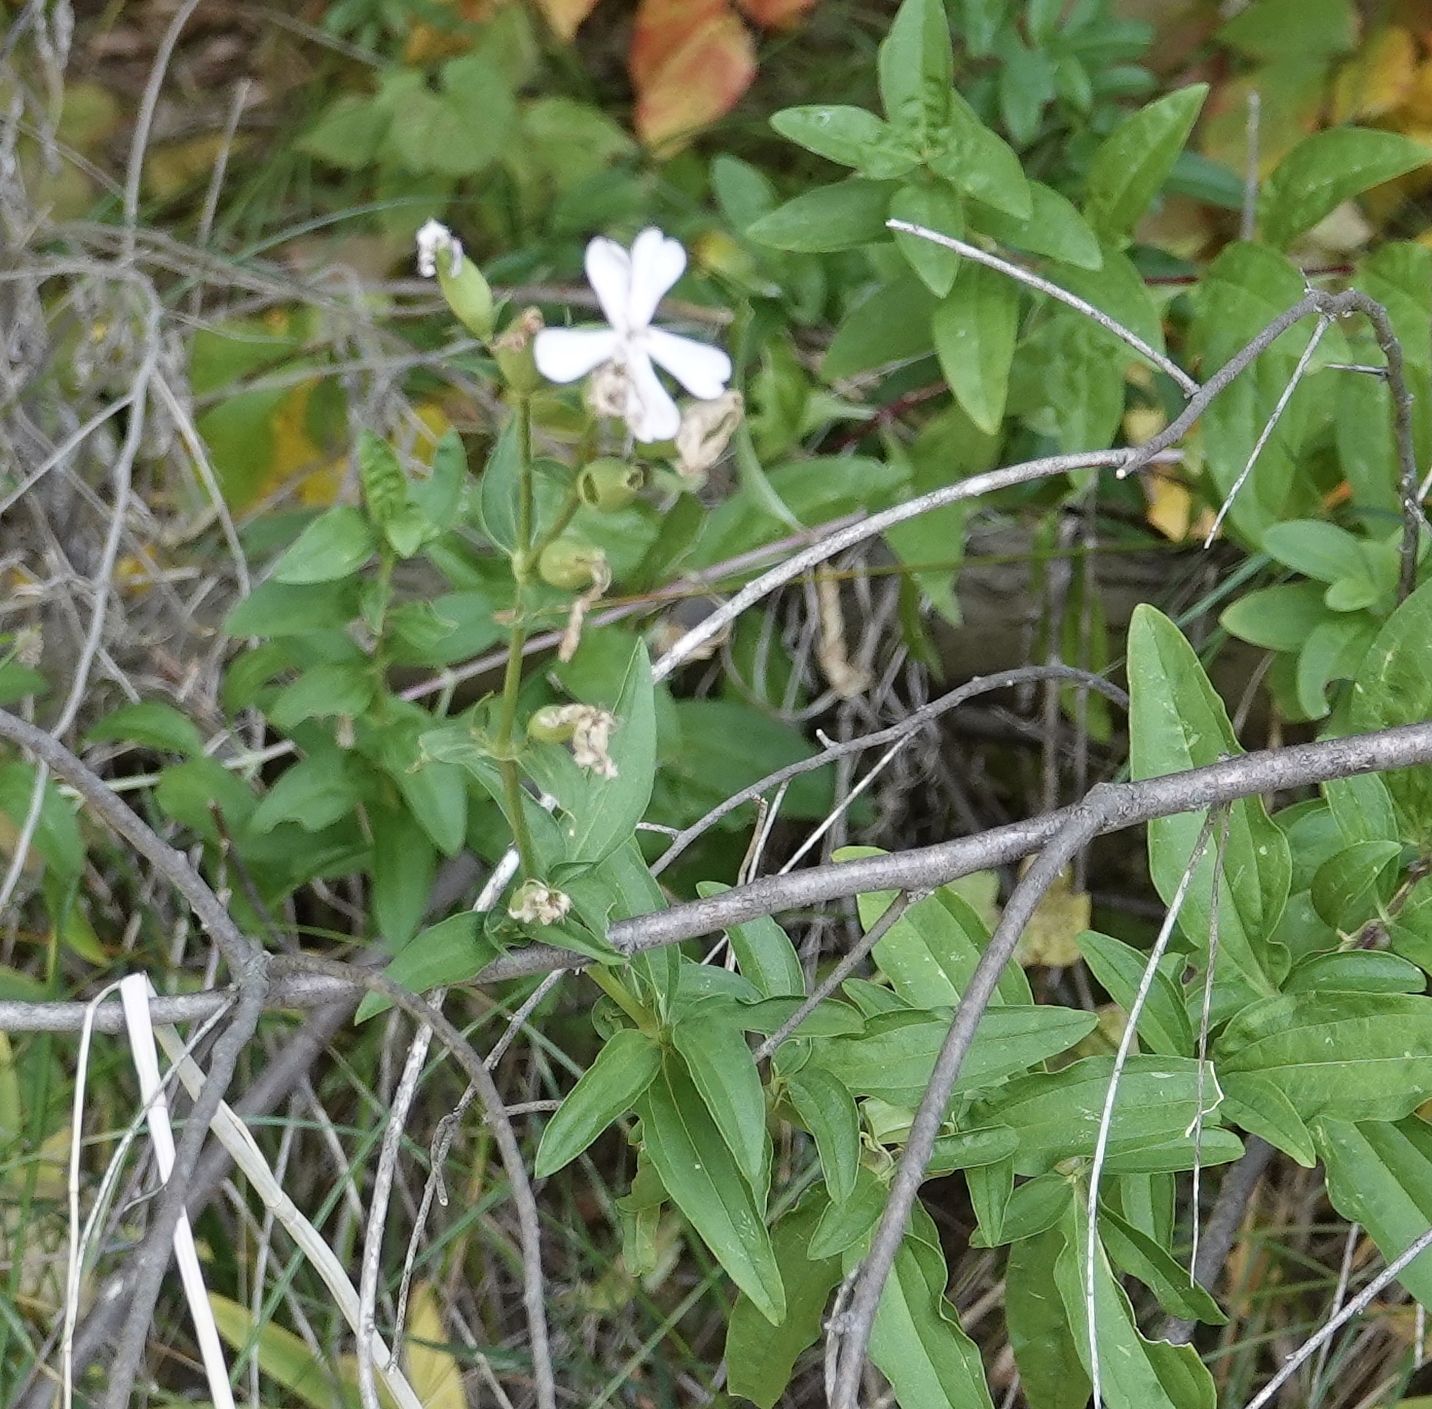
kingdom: Plantae
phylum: Tracheophyta
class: Magnoliopsida
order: Caryophyllales
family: Caryophyllaceae
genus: Saponaria
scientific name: Saponaria officinalis
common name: Soapwort
